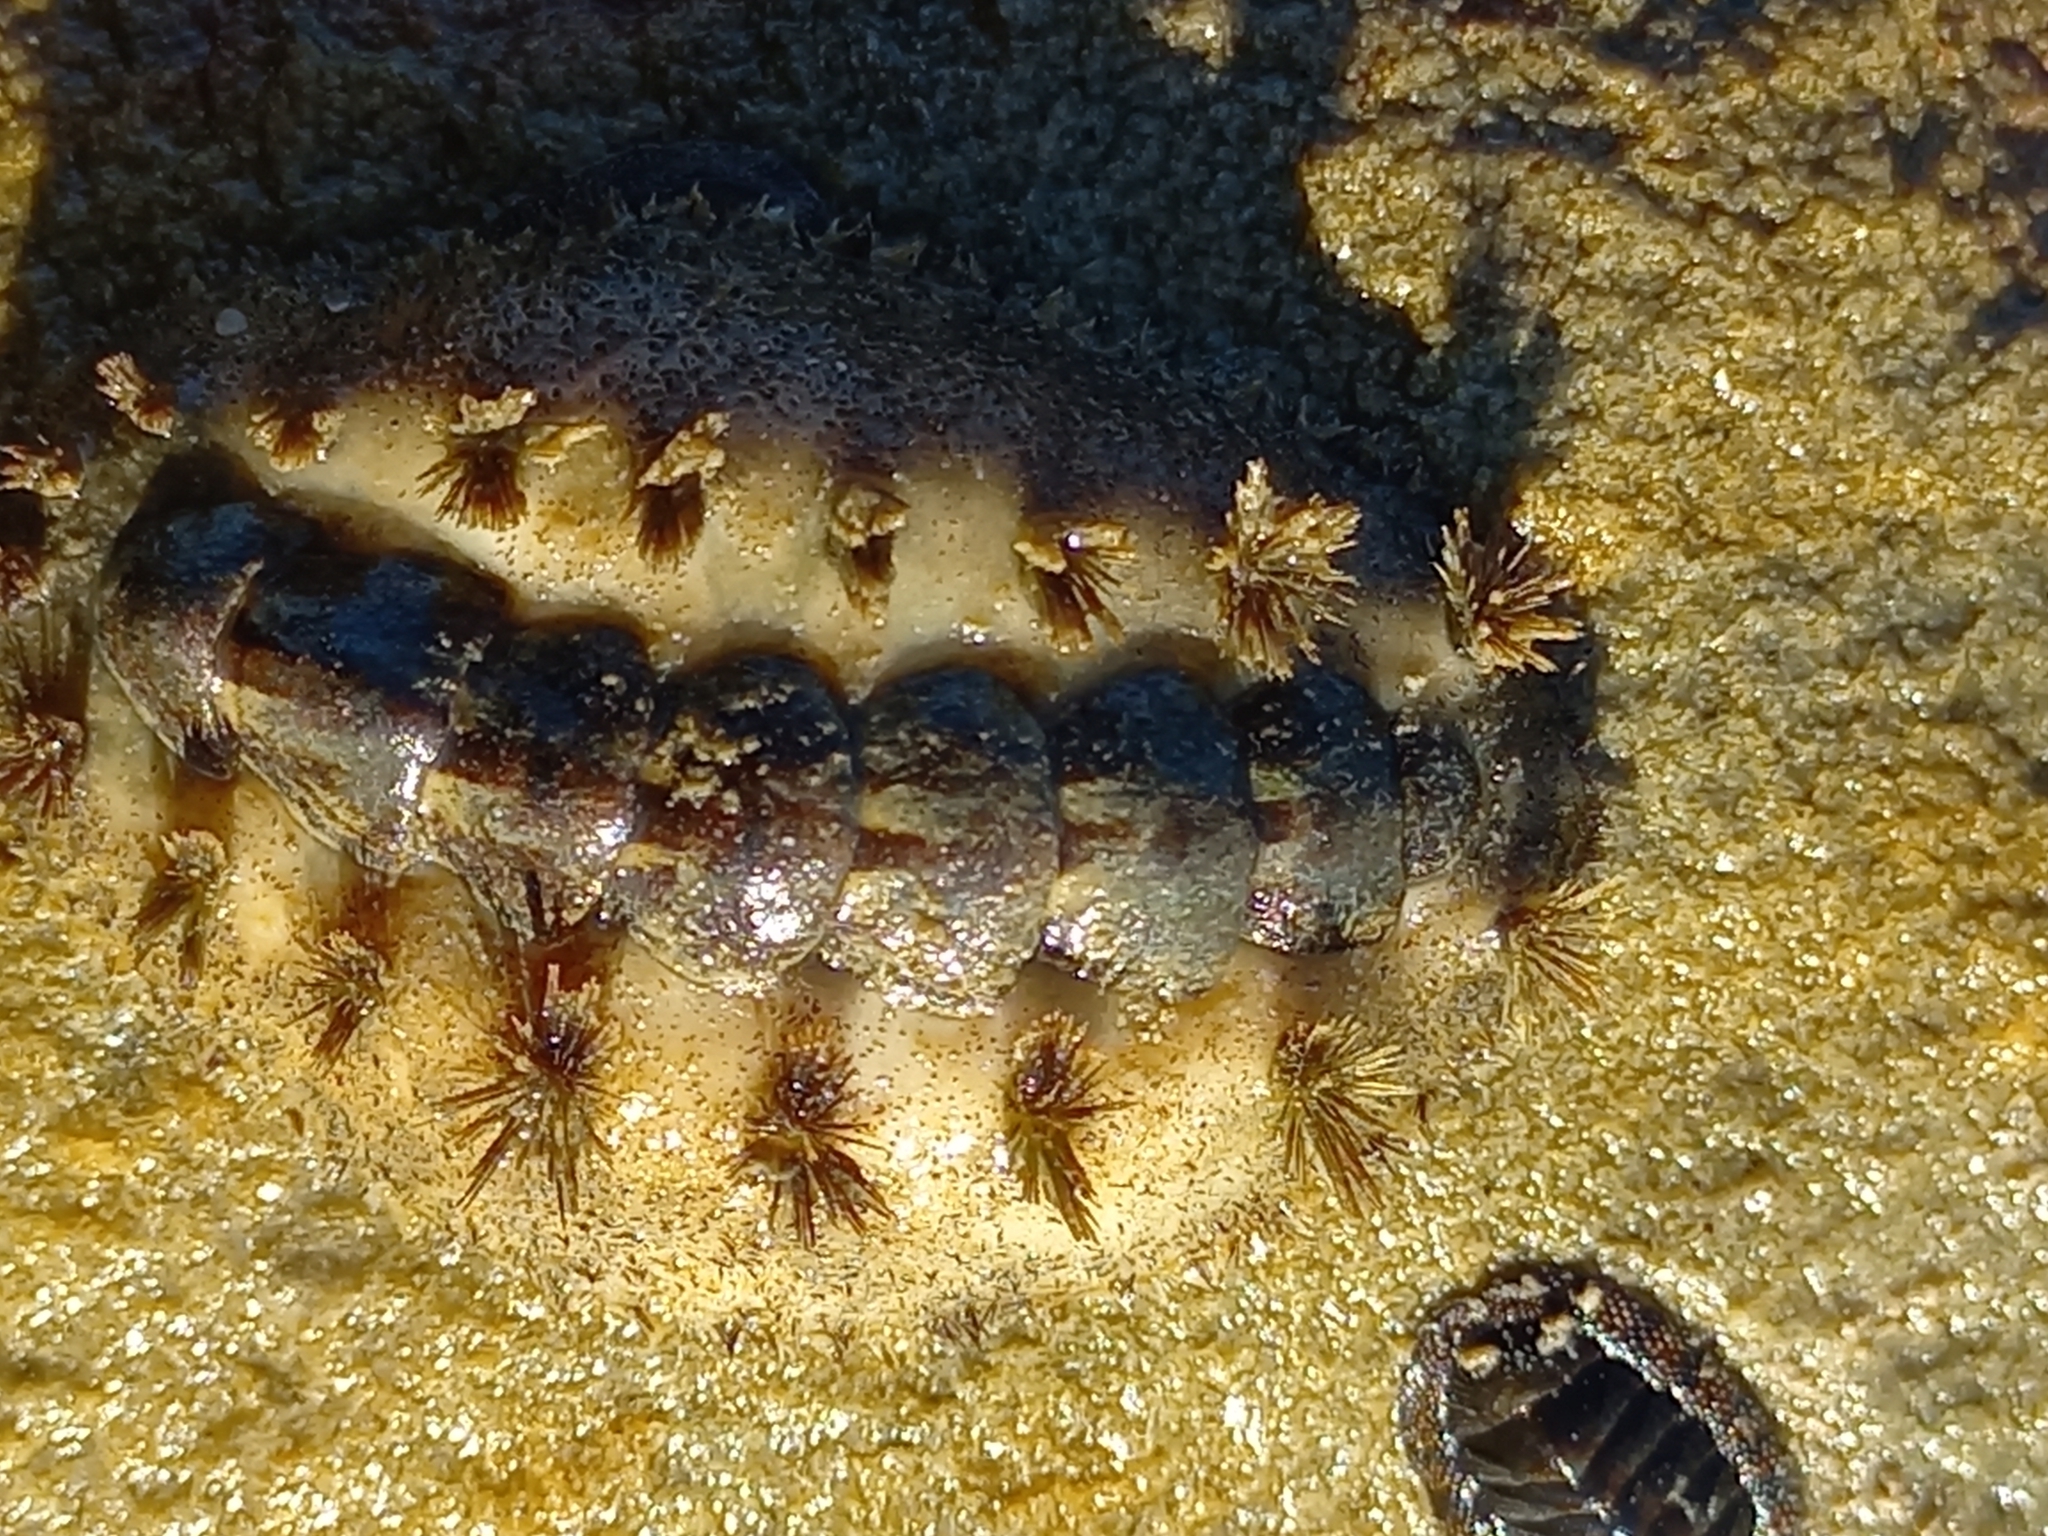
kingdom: Animalia
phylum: Mollusca
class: Polyplacophora
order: Chitonida
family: Acanthochitonidae
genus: Acanthochitona
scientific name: Acanthochitona garnoti
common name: Spiny chiton
